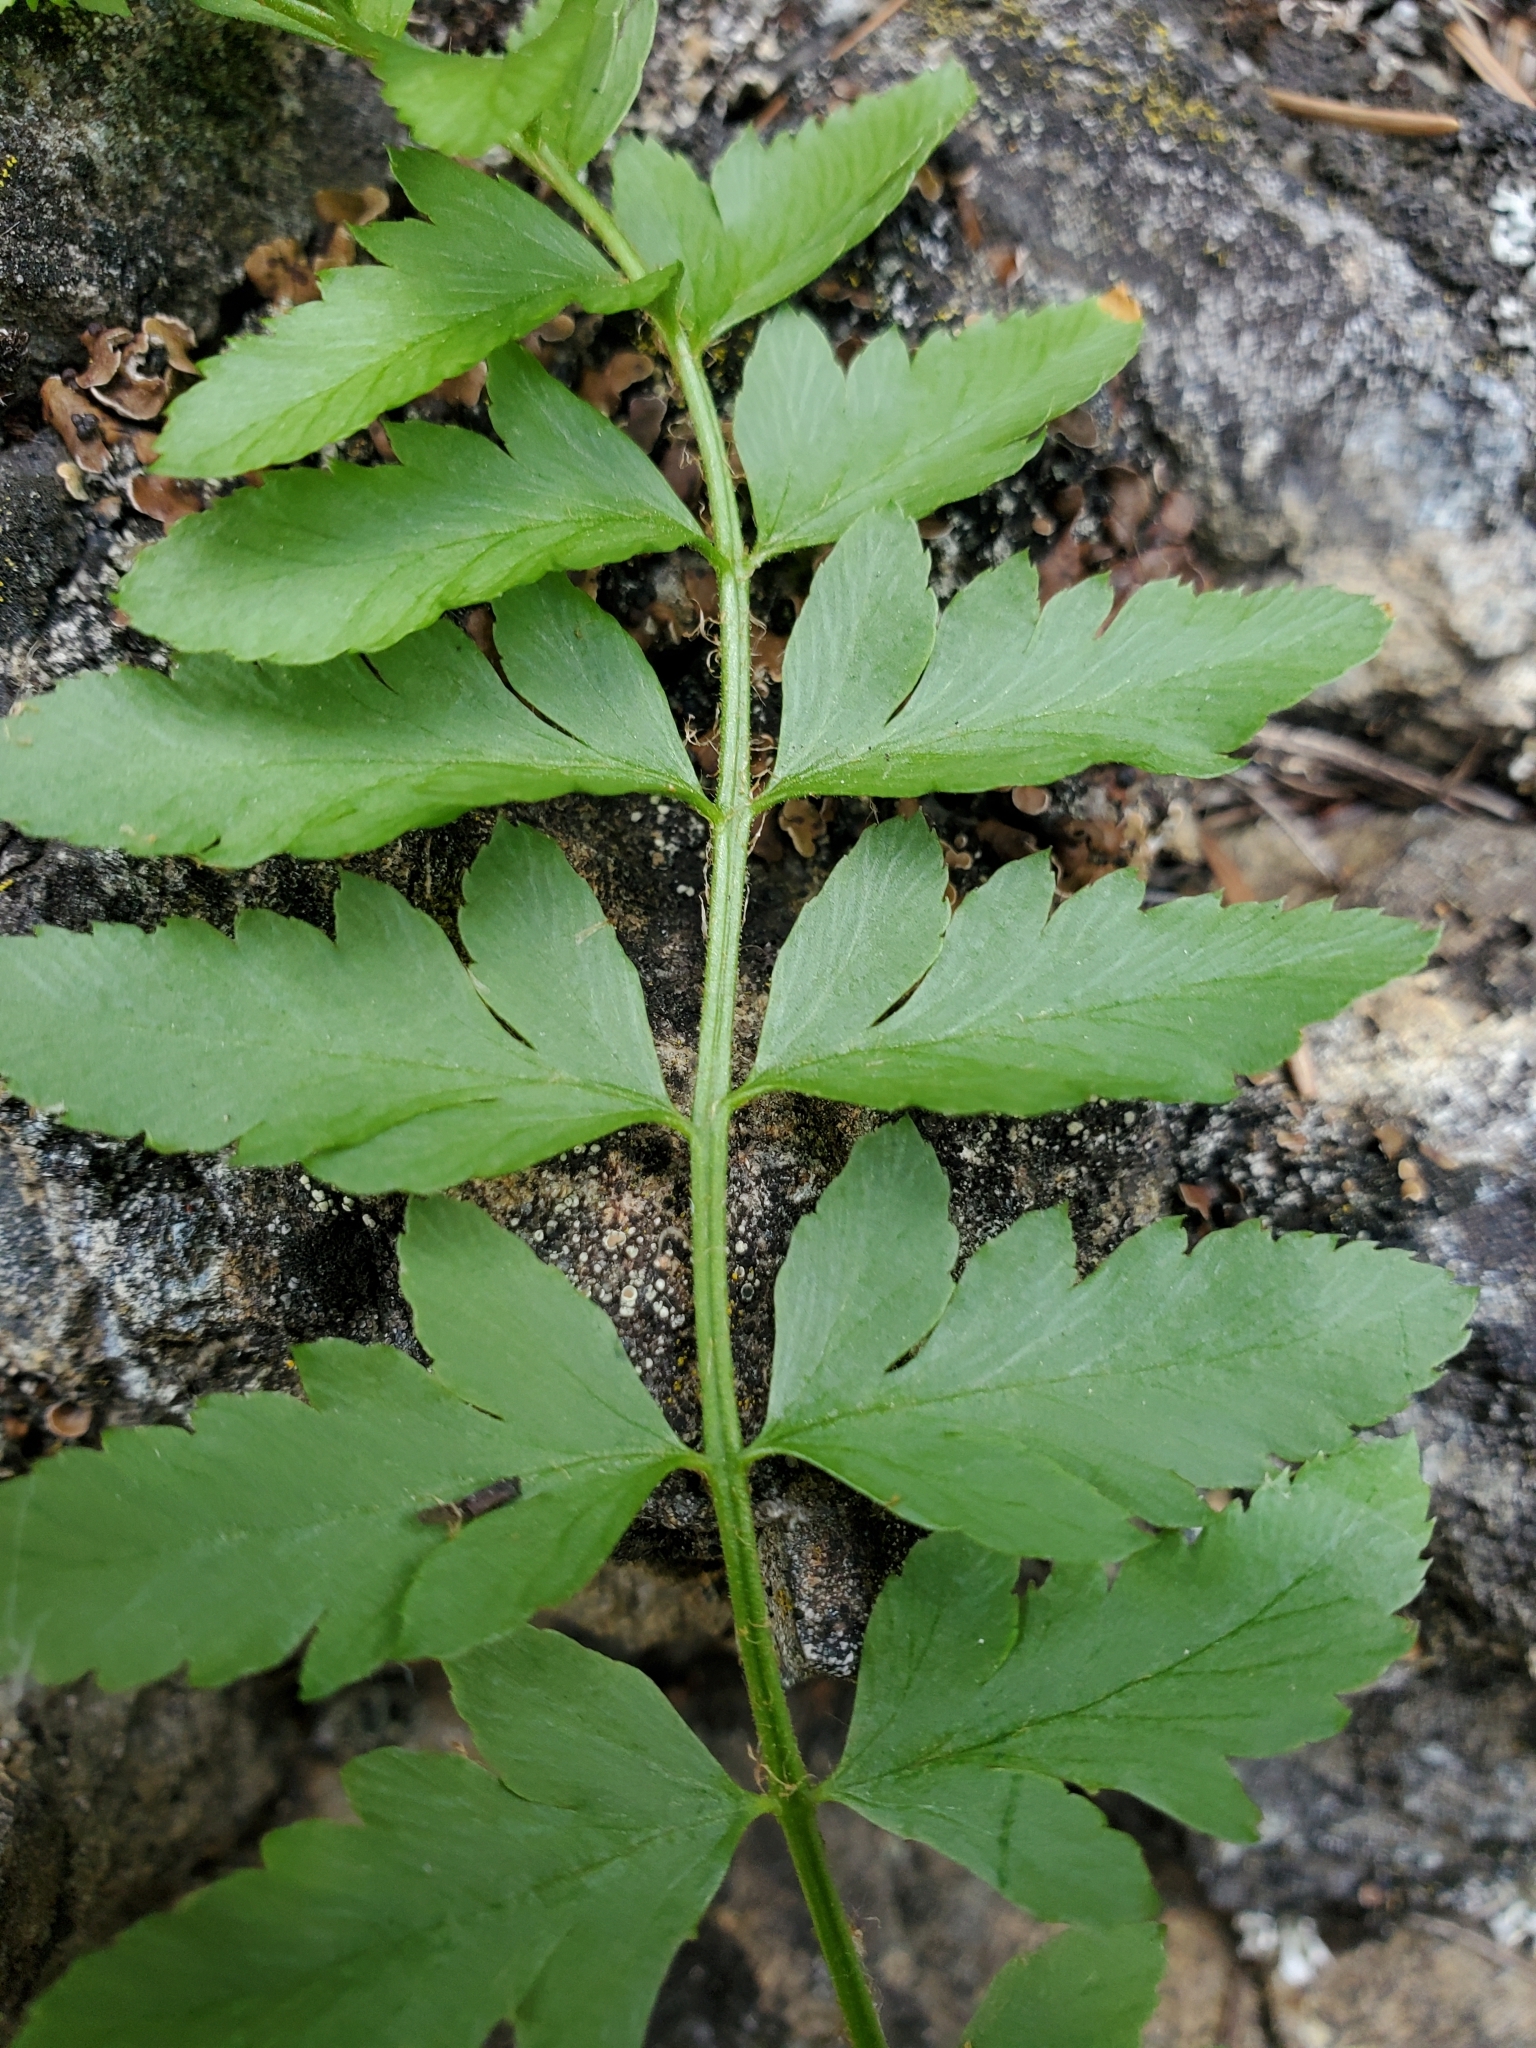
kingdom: Plantae
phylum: Tracheophyta
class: Polypodiopsida
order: Polypodiales
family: Dryopteridaceae
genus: Polystichum
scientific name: Polystichum scopulinum
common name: Eaton's shield fern
